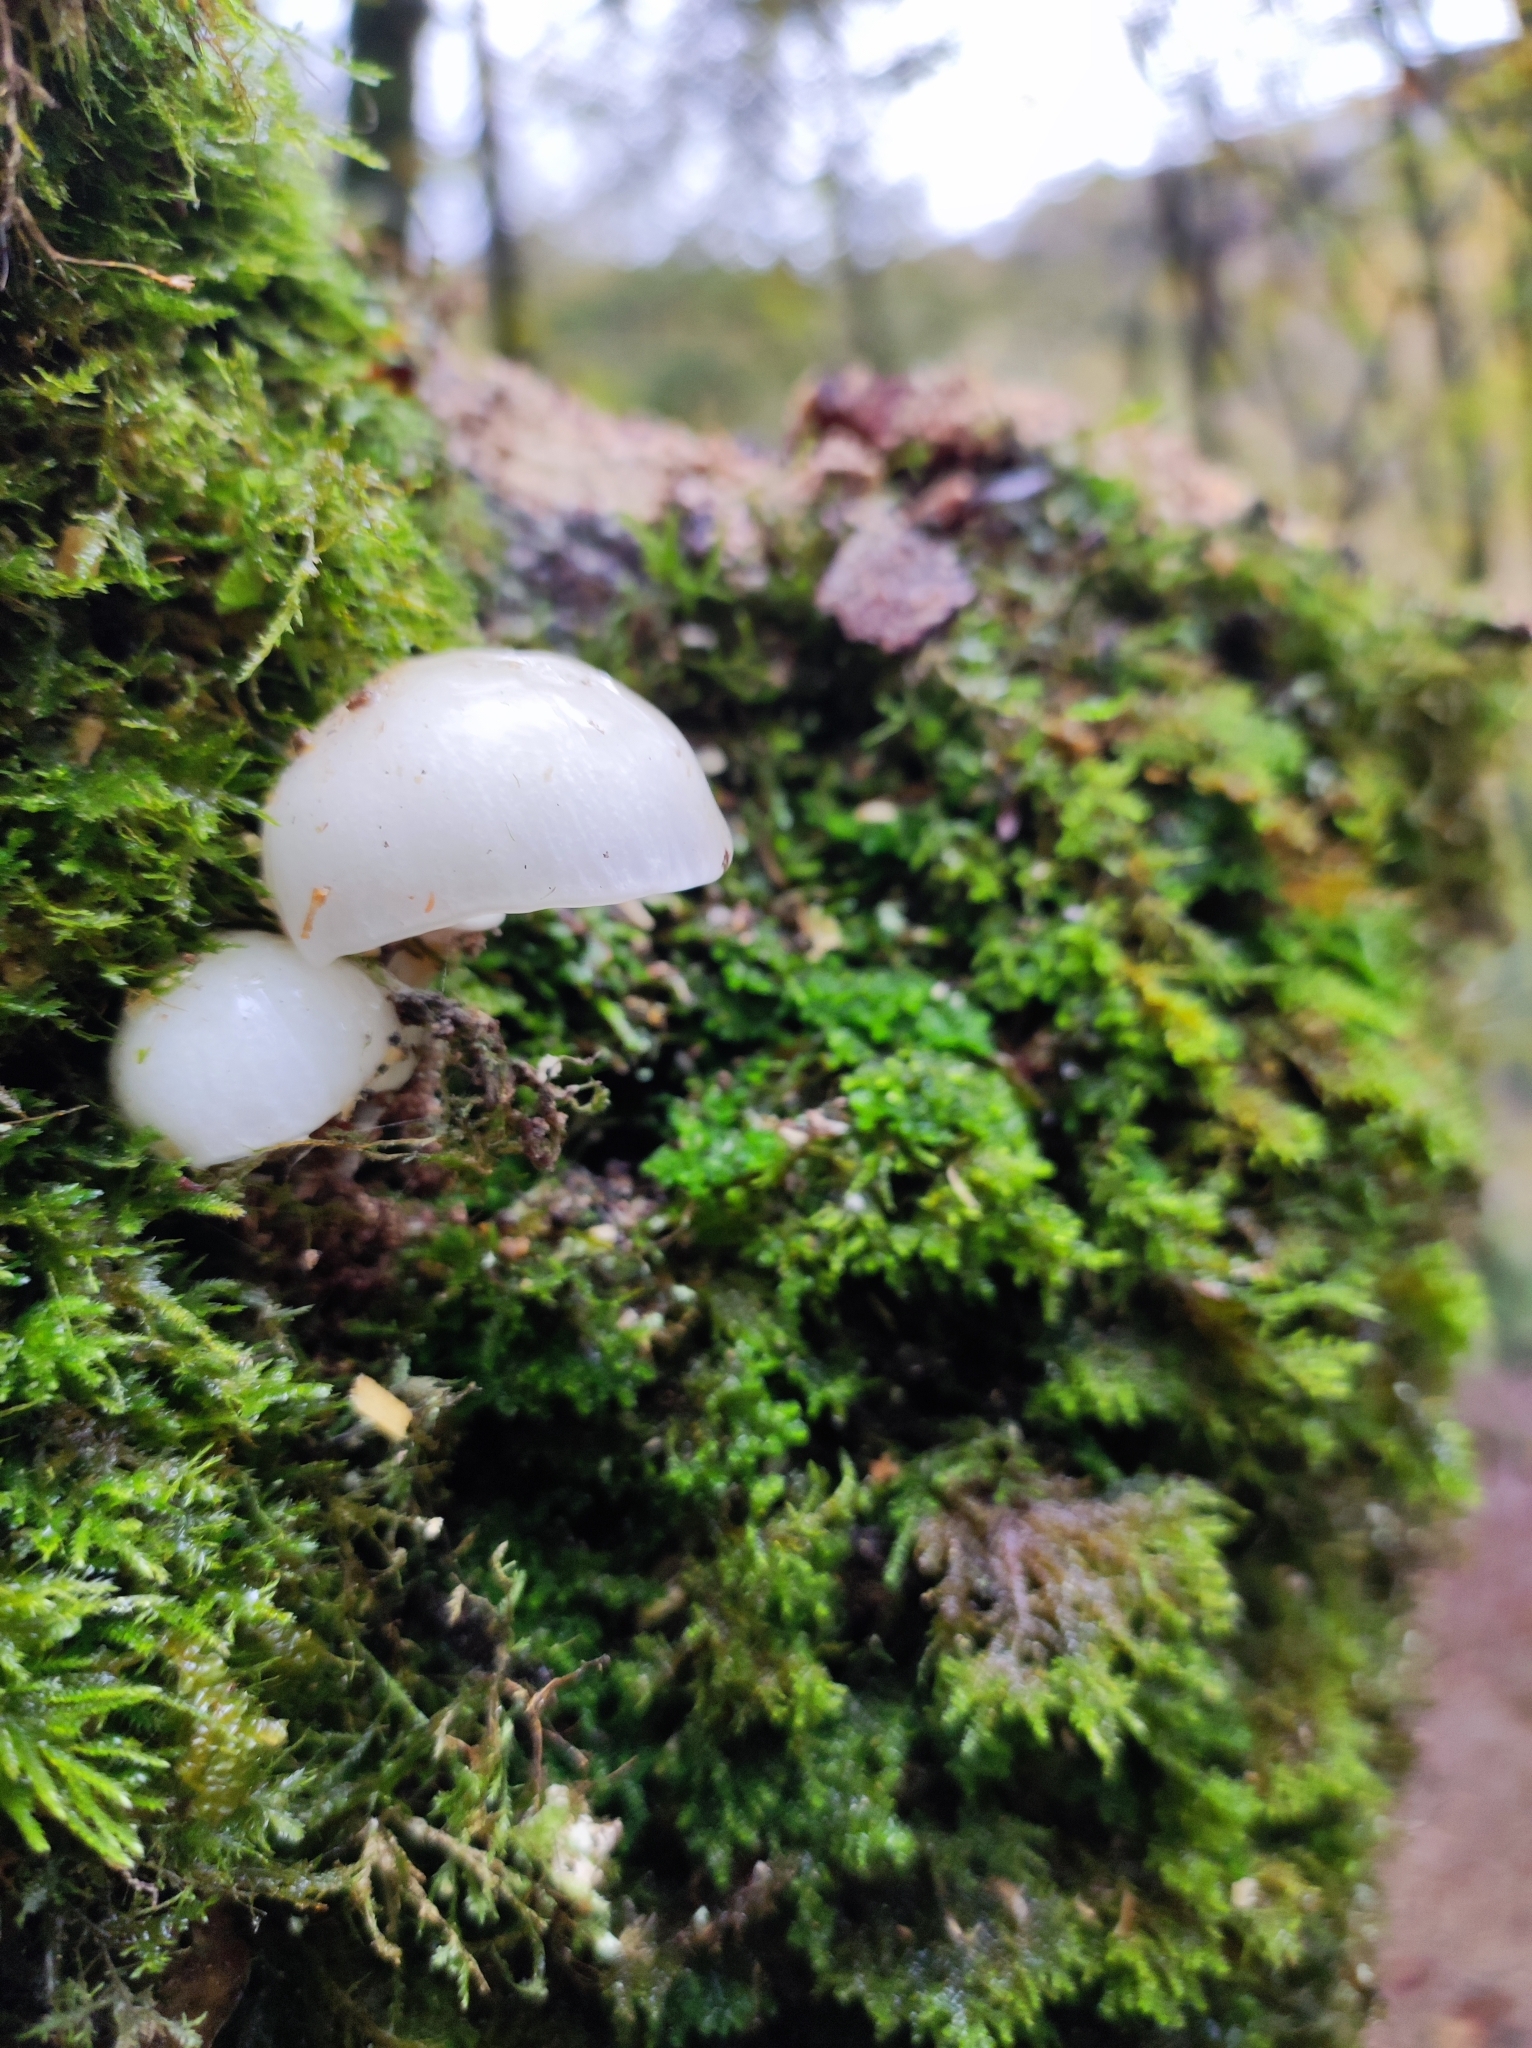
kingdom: Fungi
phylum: Basidiomycota
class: Agaricomycetes
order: Agaricales
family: Physalacriaceae
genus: Mucidula
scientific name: Mucidula mucida
